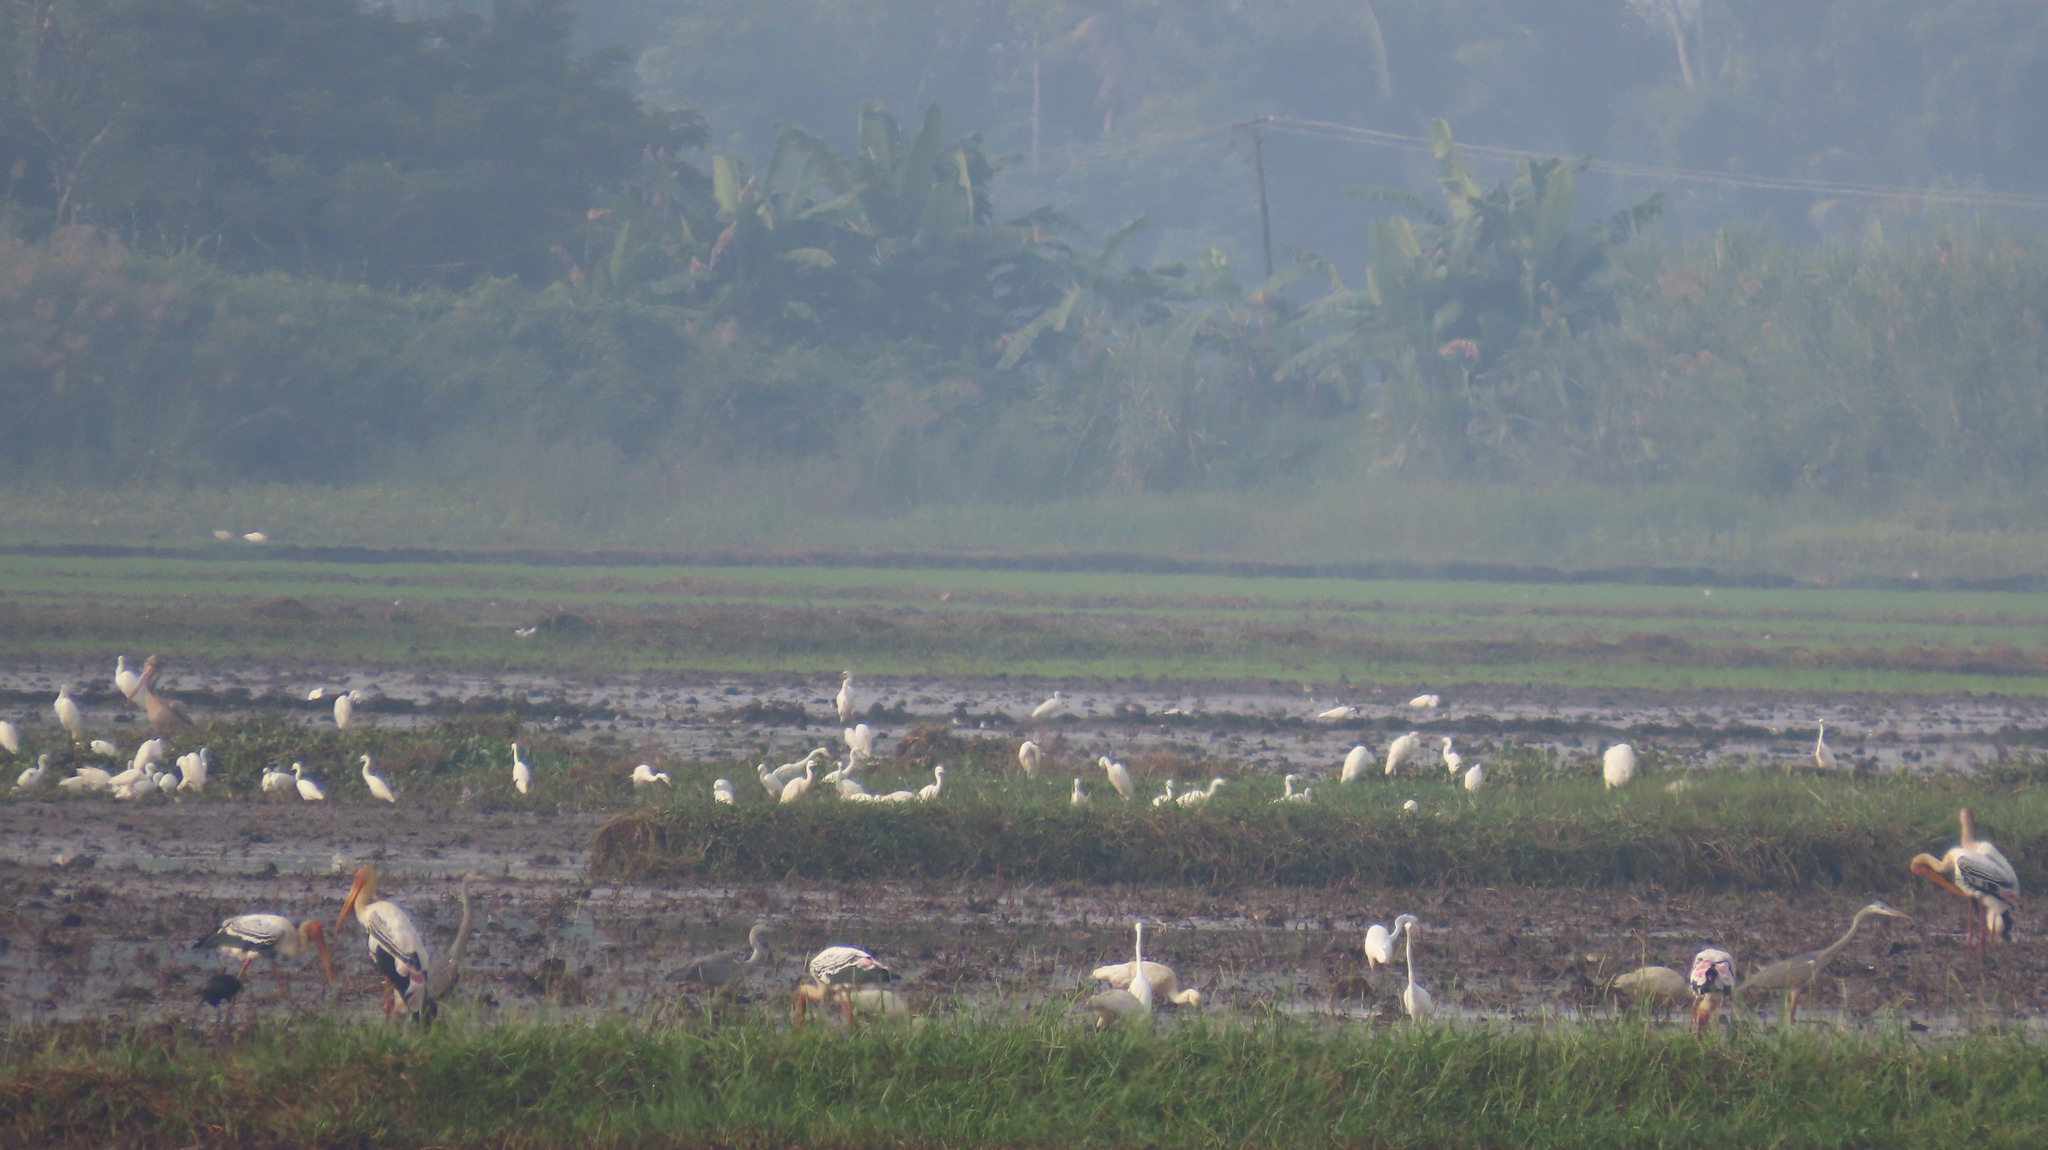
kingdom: Animalia
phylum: Chordata
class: Aves
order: Pelecaniformes
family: Ardeidae
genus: Ardea
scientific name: Ardea cinerea
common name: Grey heron
